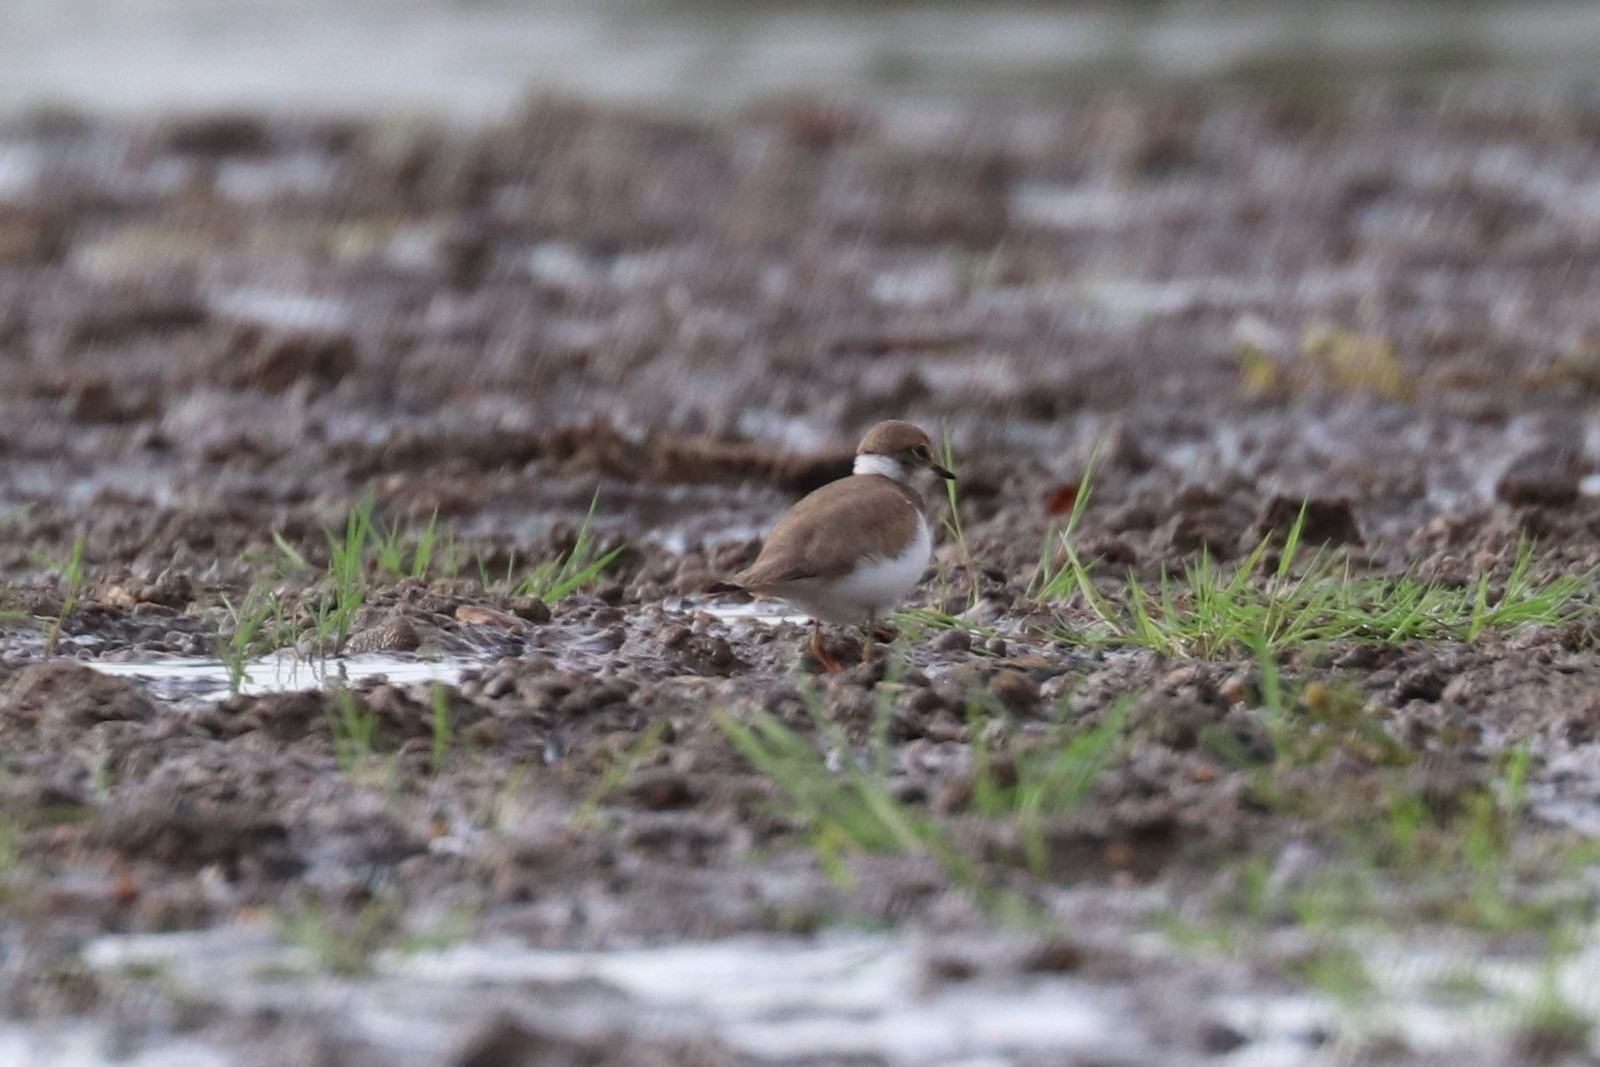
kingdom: Animalia
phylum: Chordata
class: Aves
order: Charadriiformes
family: Charadriidae
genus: Charadrius
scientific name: Charadrius dubius
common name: Little ringed plover
